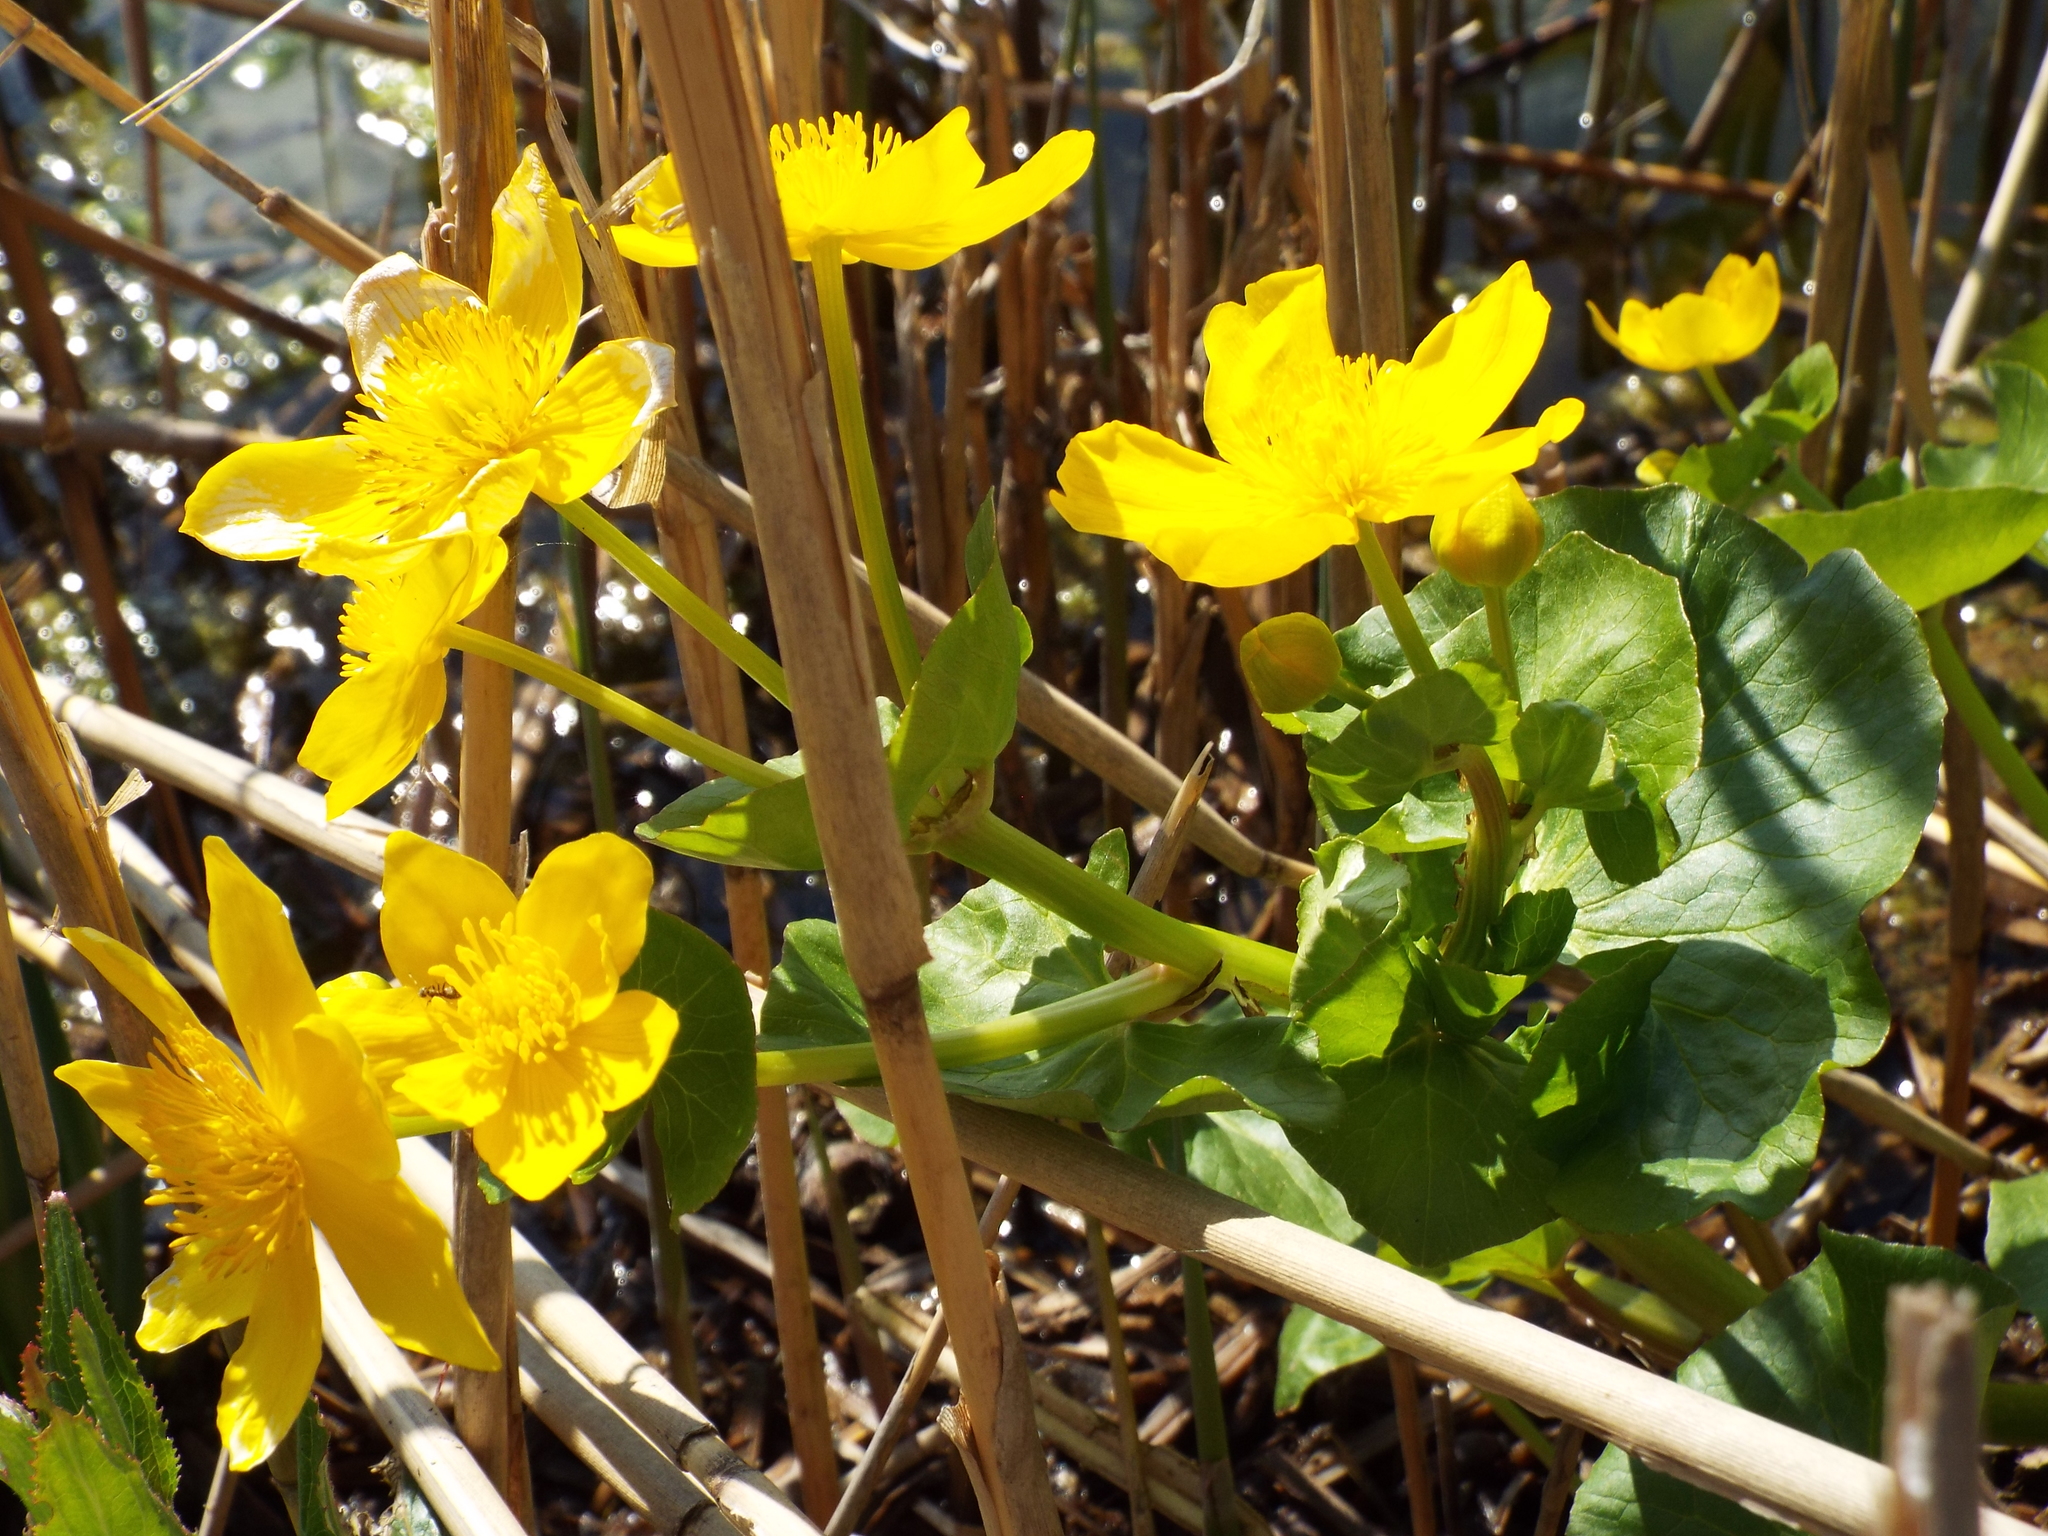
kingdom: Plantae
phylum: Tracheophyta
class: Magnoliopsida
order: Ranunculales
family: Ranunculaceae
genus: Caltha
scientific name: Caltha palustris
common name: Marsh marigold
